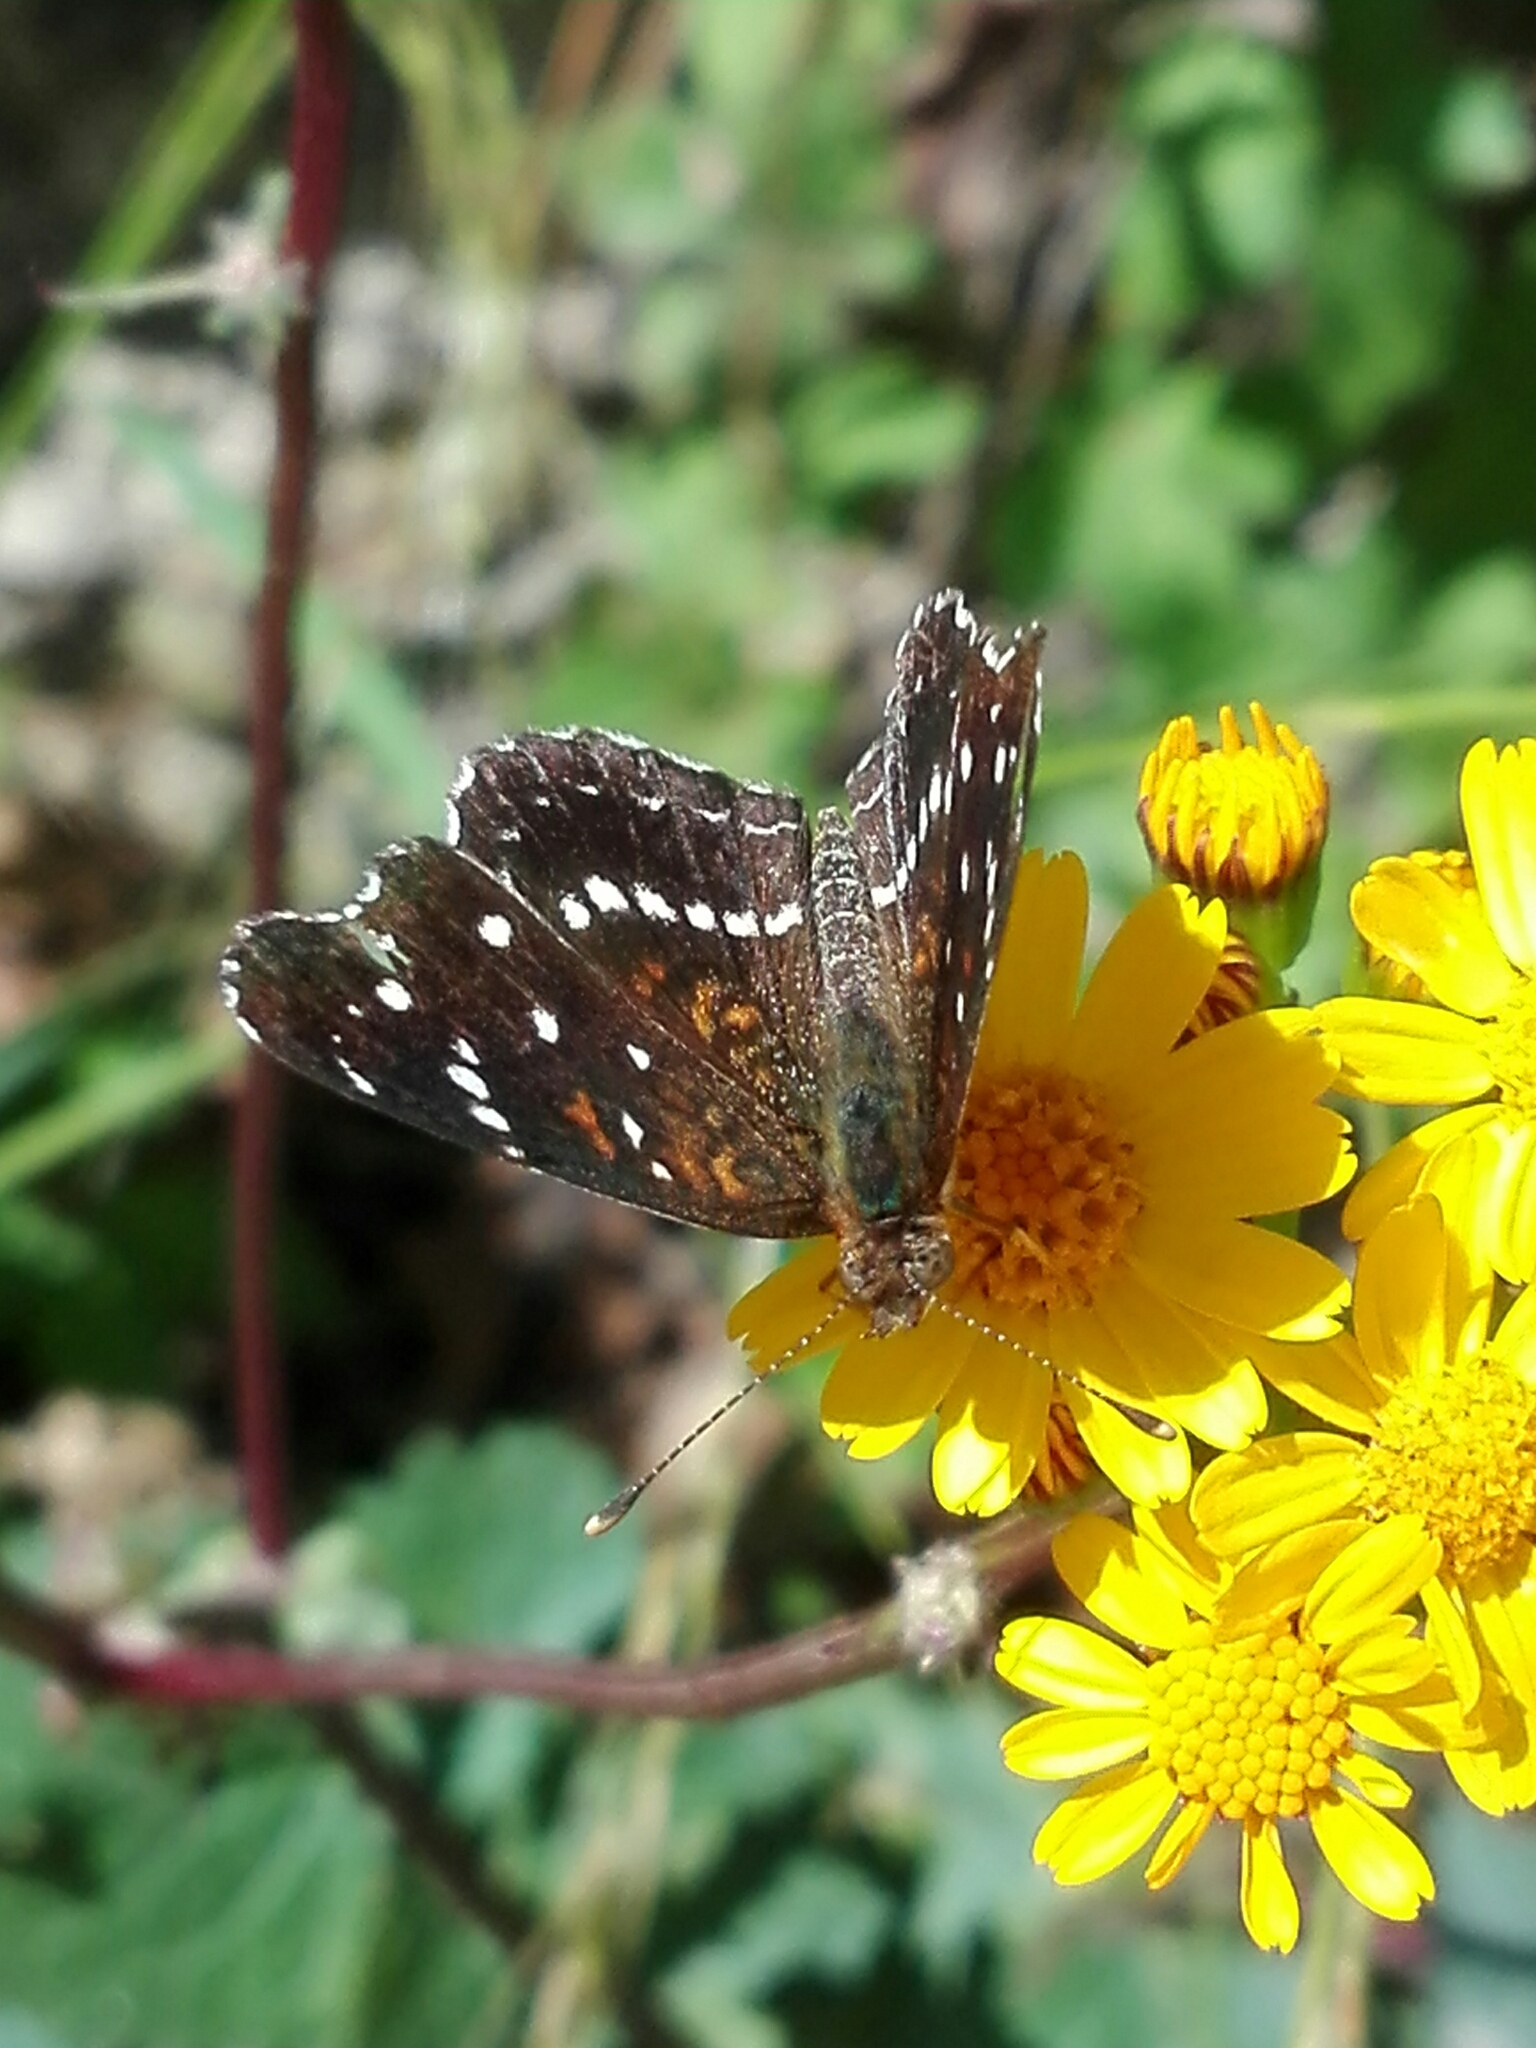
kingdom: Animalia
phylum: Arthropoda
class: Insecta
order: Lepidoptera
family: Nymphalidae
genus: Anthanassa
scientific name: Anthanassa texana
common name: Texan crescent
